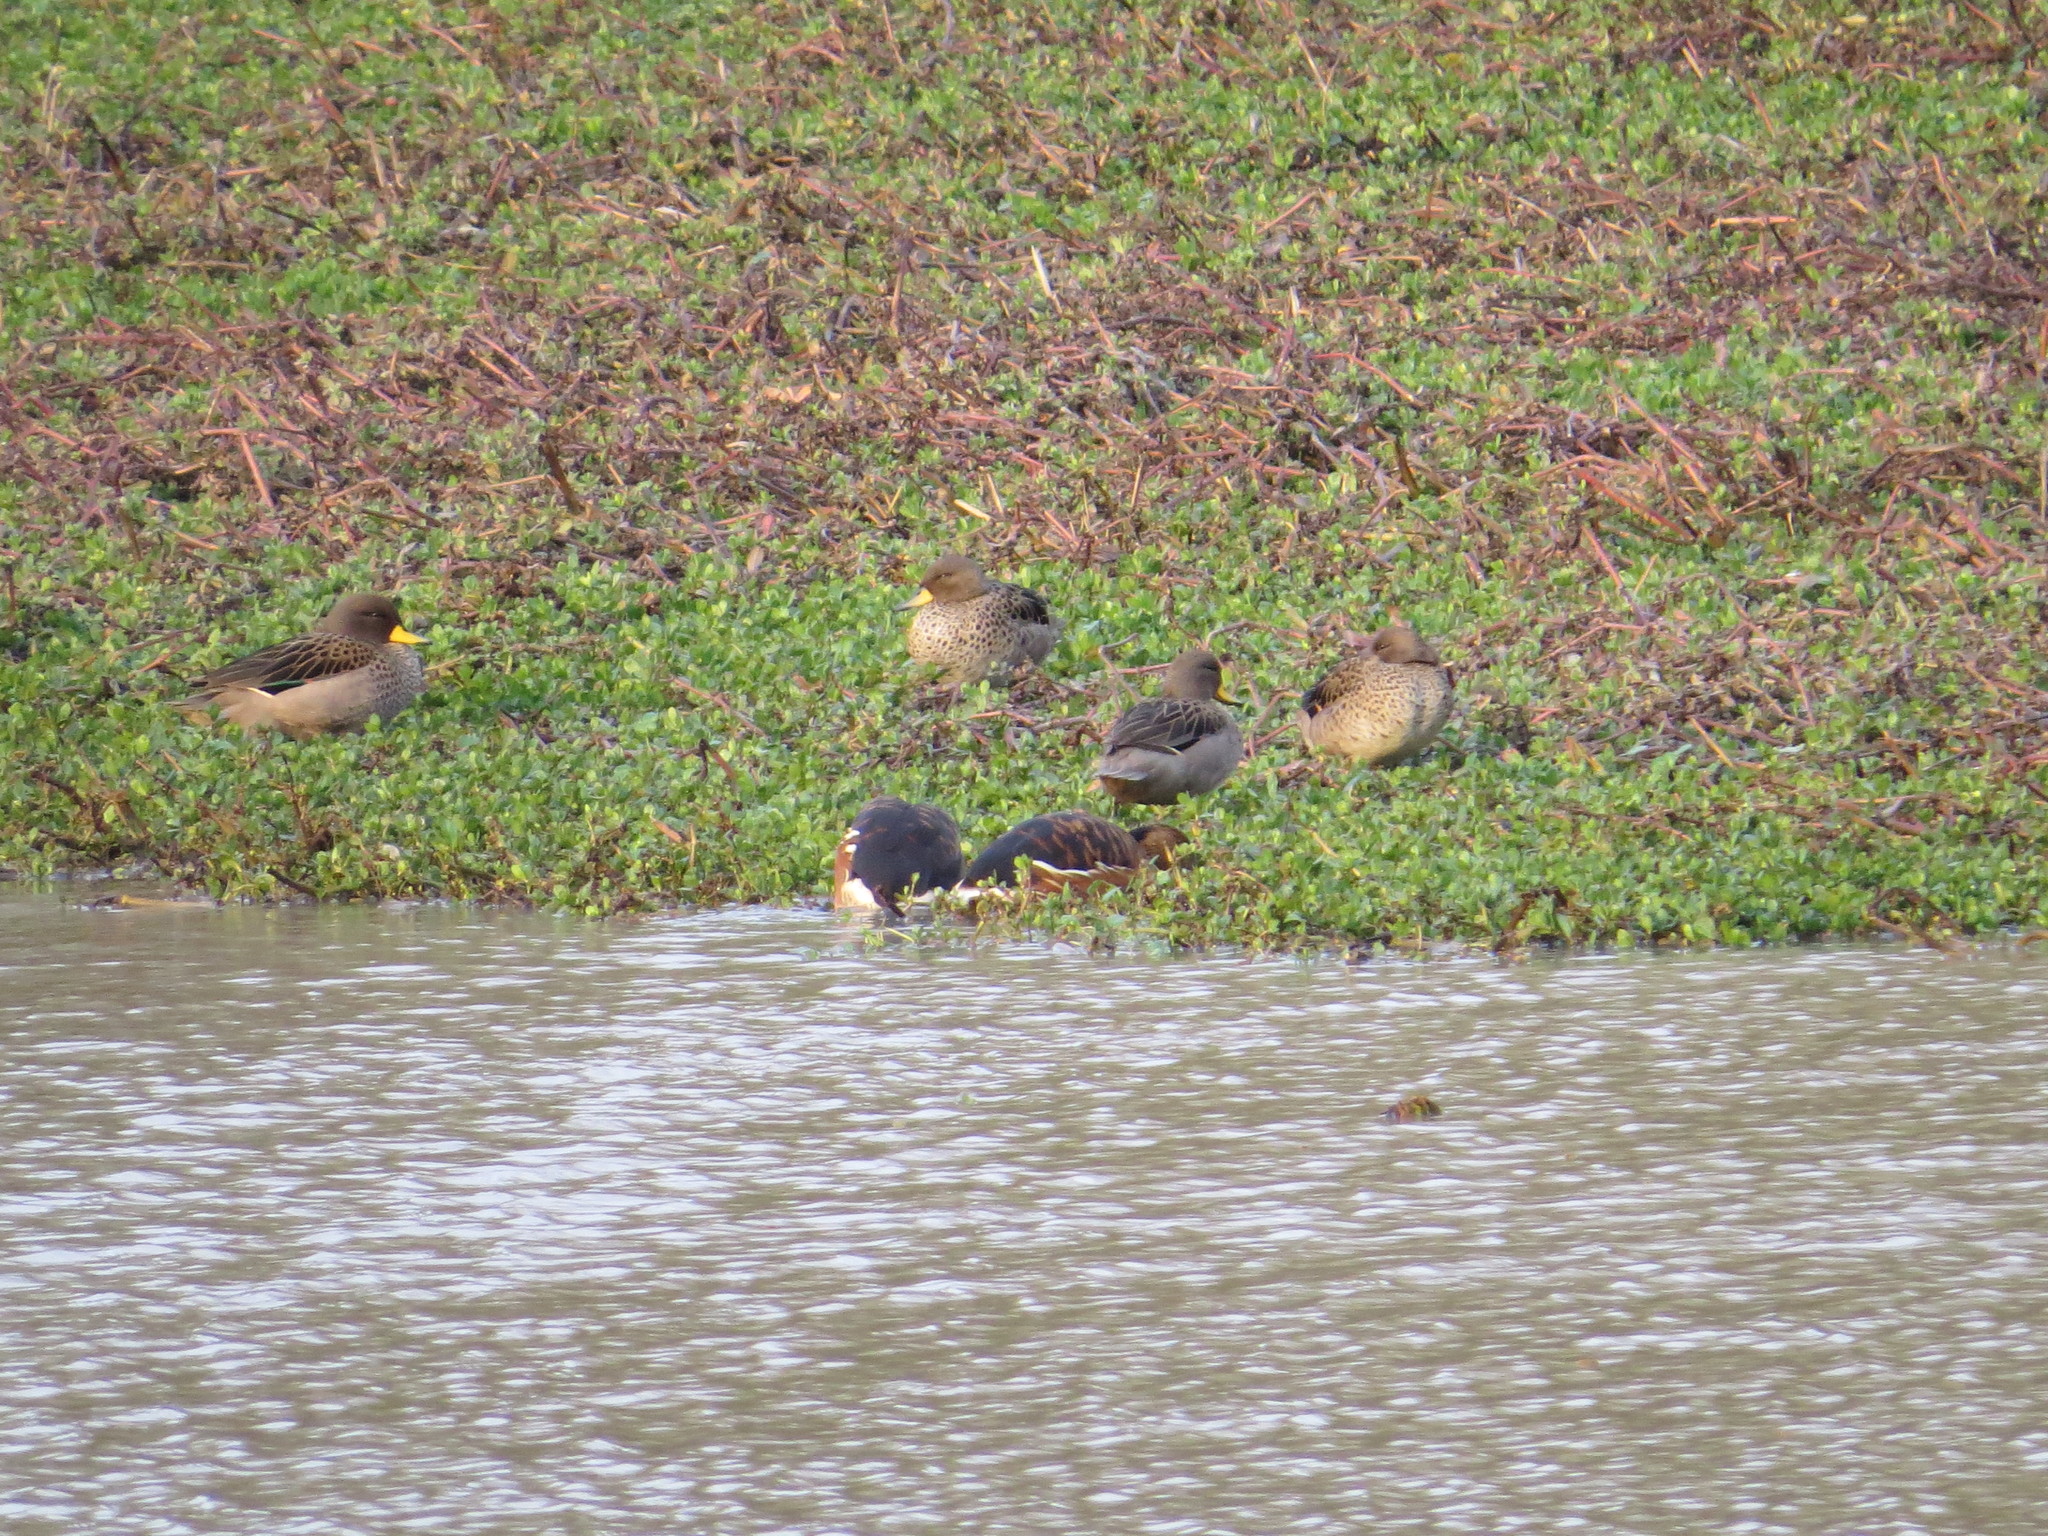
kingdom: Animalia
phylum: Chordata
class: Aves
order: Anseriformes
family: Anatidae
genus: Anas
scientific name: Anas flavirostris
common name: Yellow-billed teal
